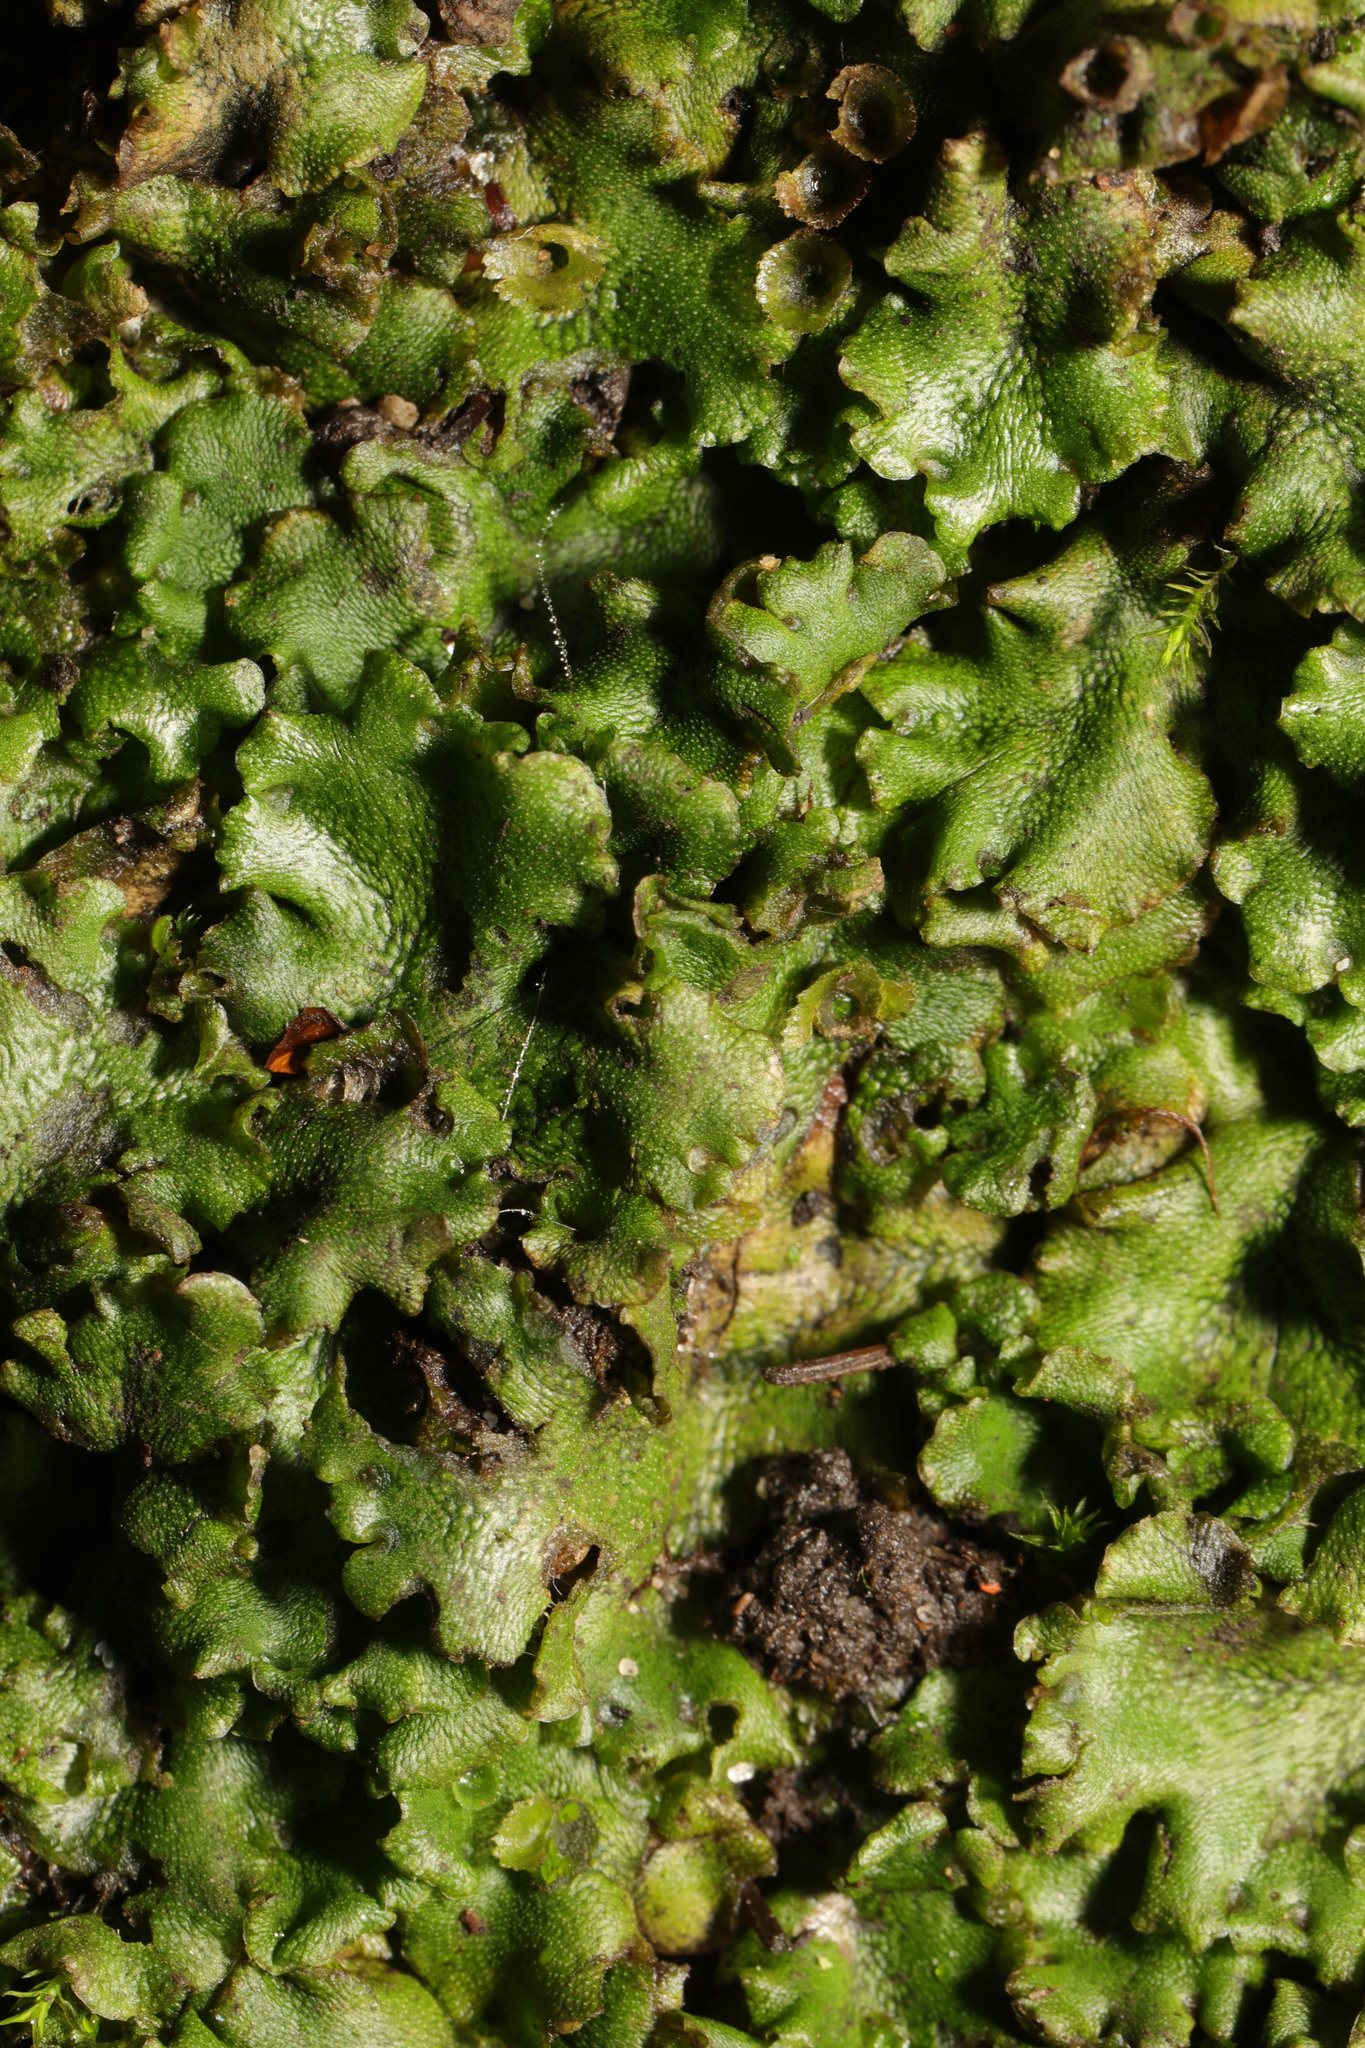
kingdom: Plantae
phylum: Marchantiophyta
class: Marchantiopsida
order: Marchantiales
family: Marchantiaceae
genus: Marchantia
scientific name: Marchantia polymorpha
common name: Common liverwort
